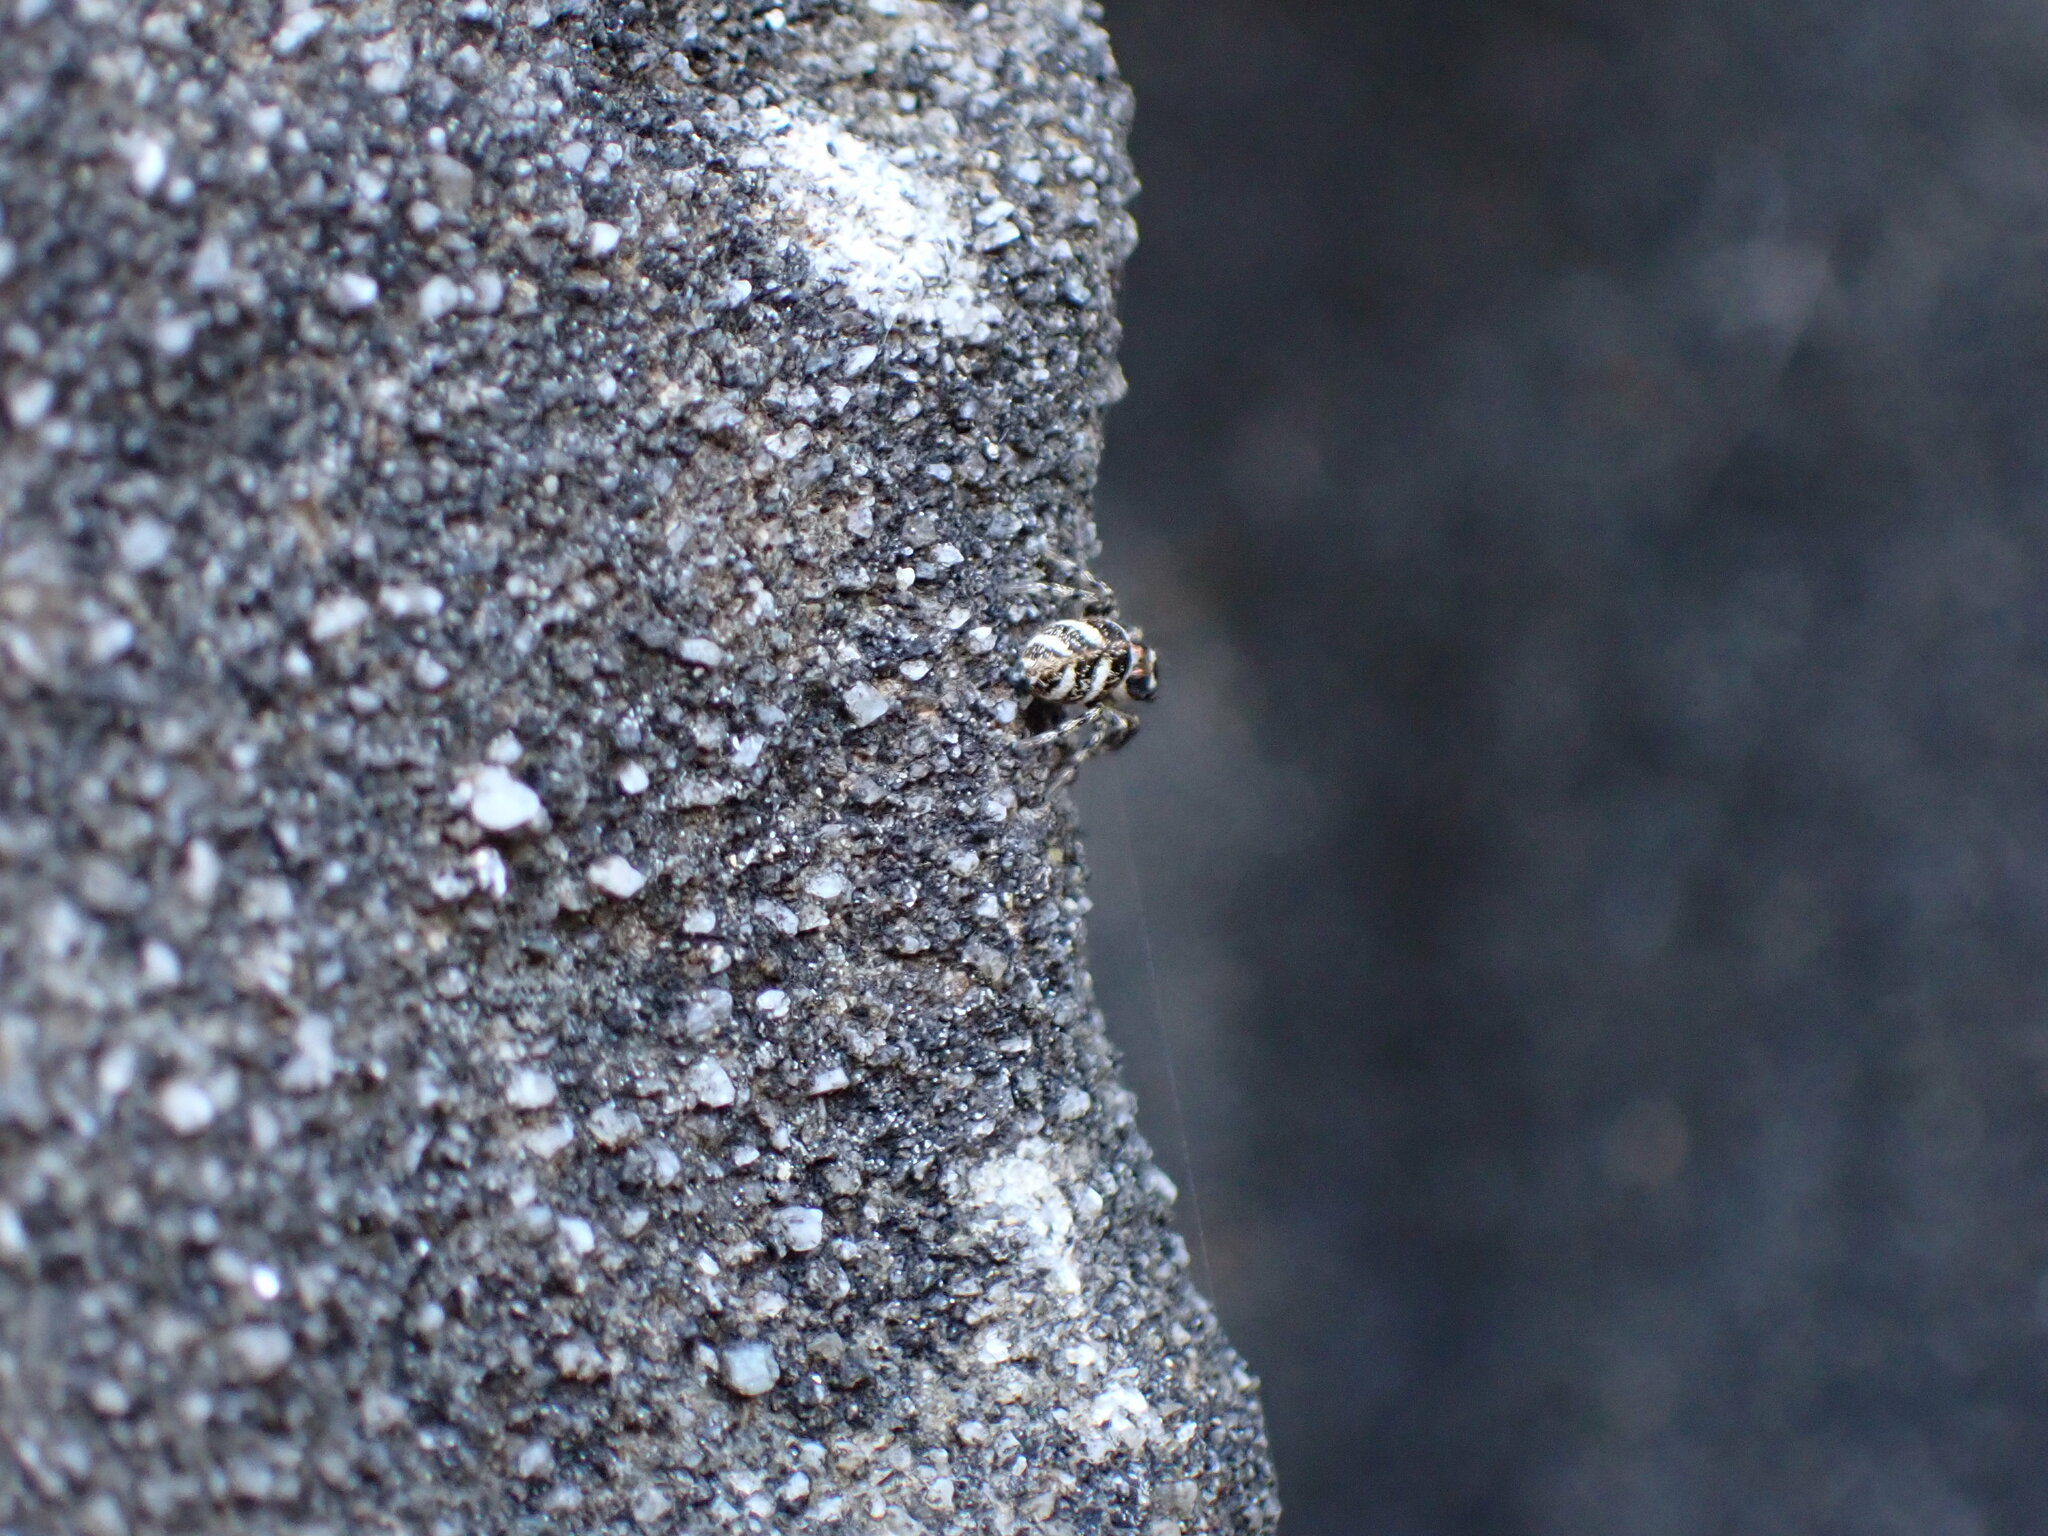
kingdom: Animalia
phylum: Arthropoda
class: Arachnida
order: Araneae
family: Salticidae
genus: Salticus
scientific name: Salticus scenicus
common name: Zebra jumper
